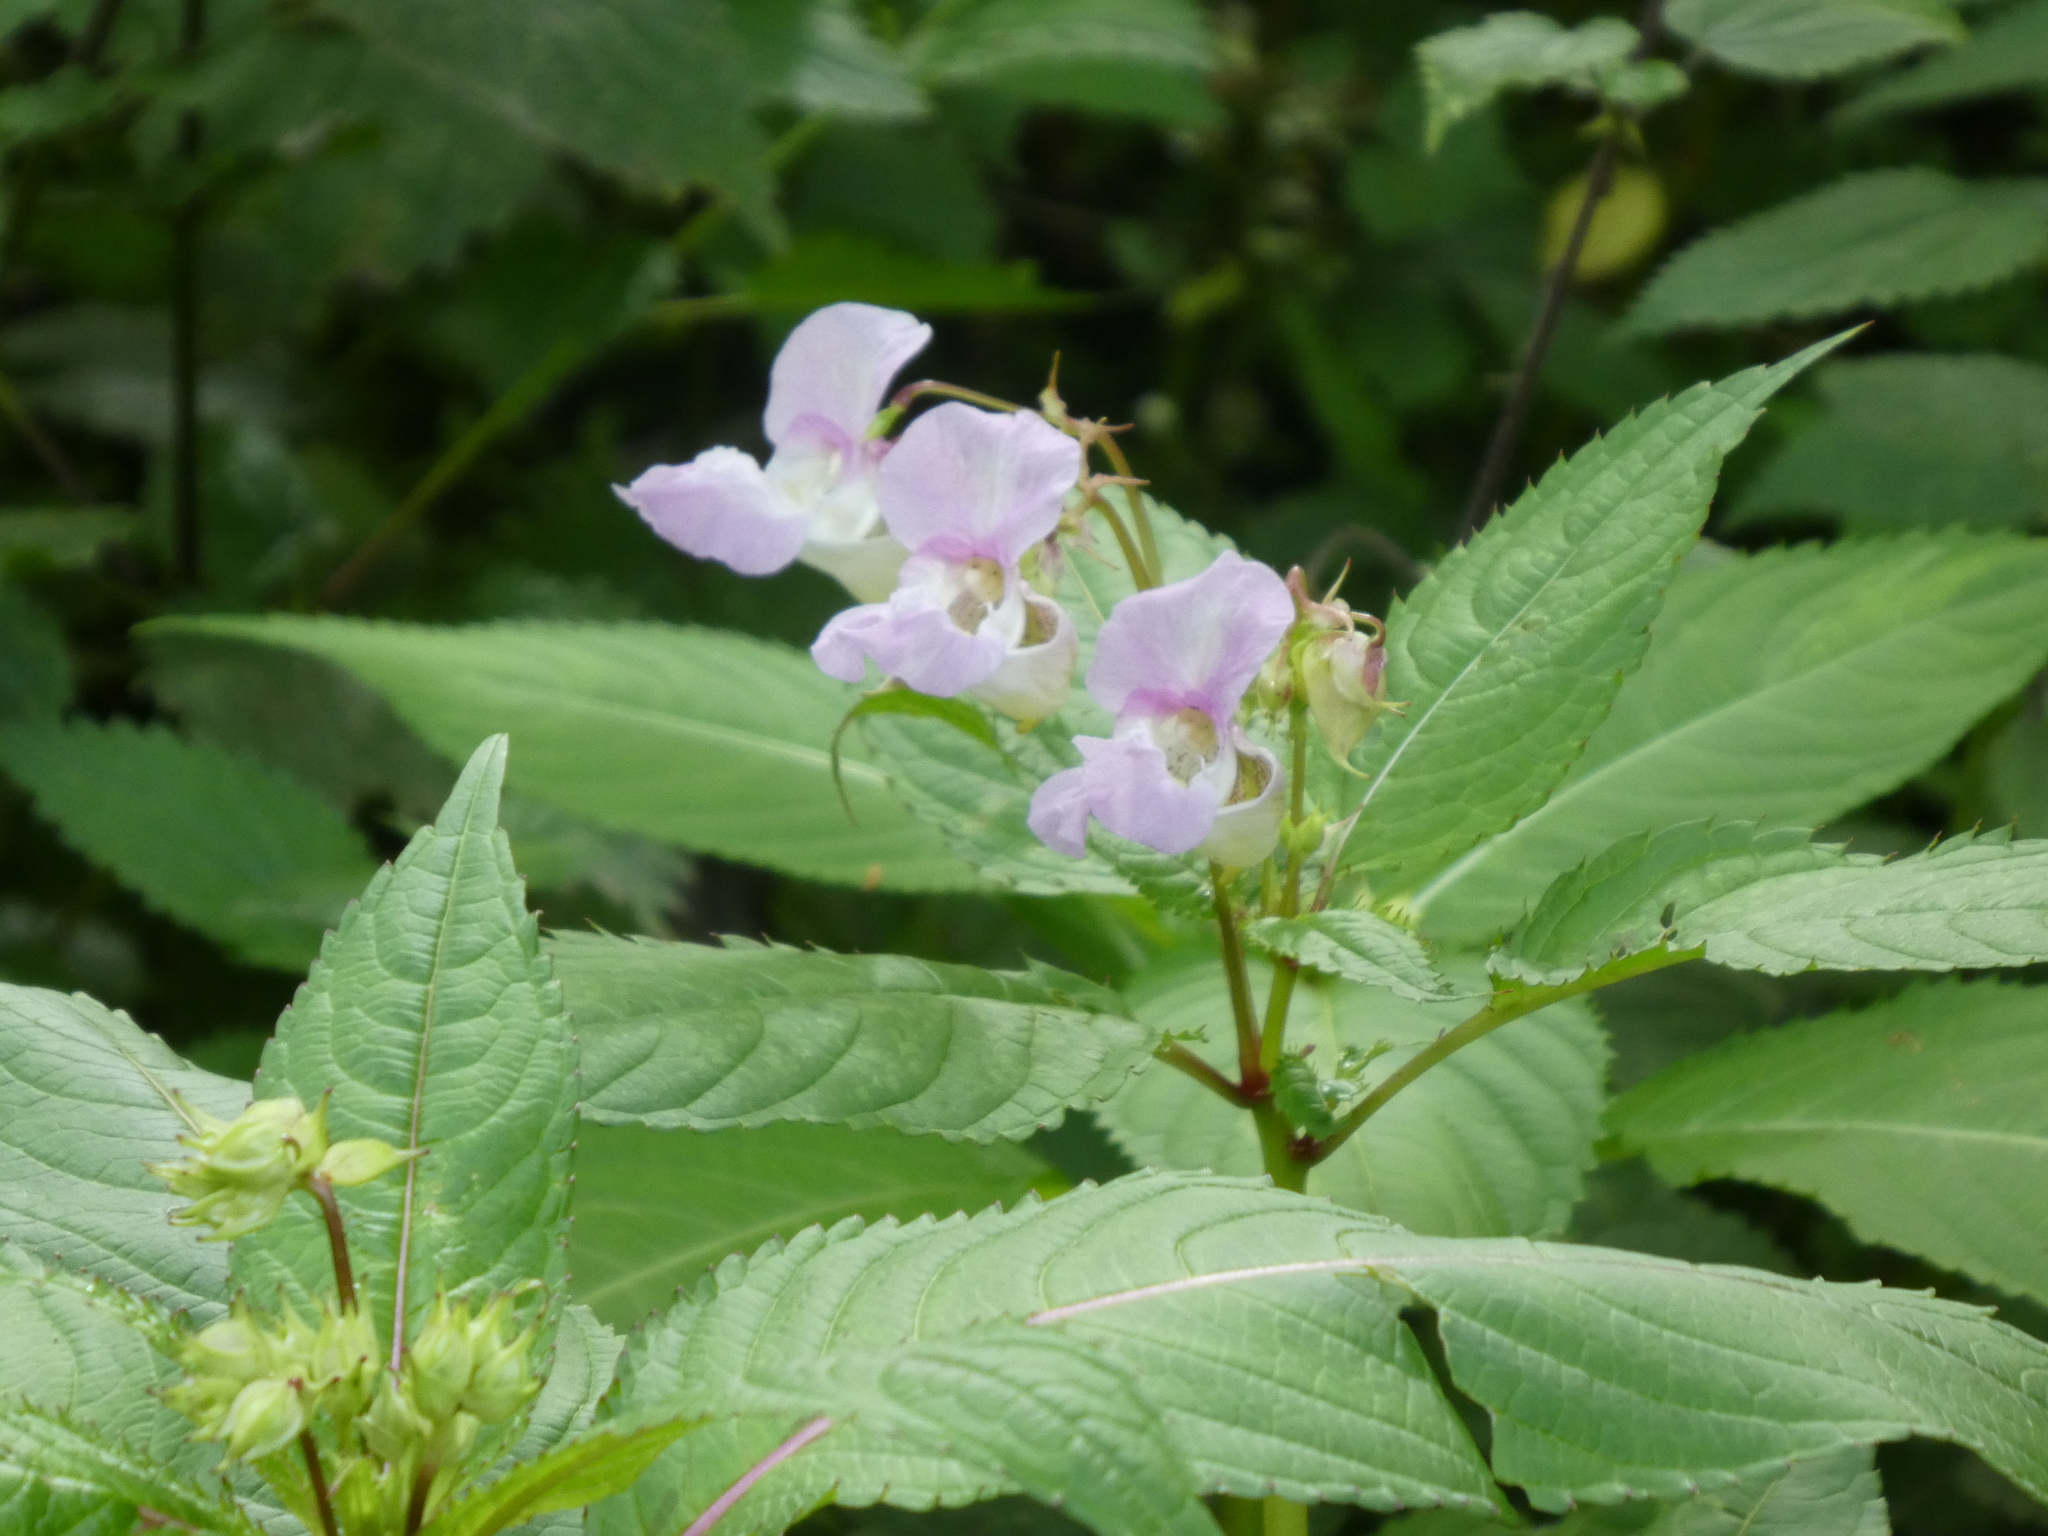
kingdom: Plantae
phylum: Tracheophyta
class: Magnoliopsida
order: Ericales
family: Balsaminaceae
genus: Impatiens
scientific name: Impatiens glandulifera
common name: Himalayan balsam
